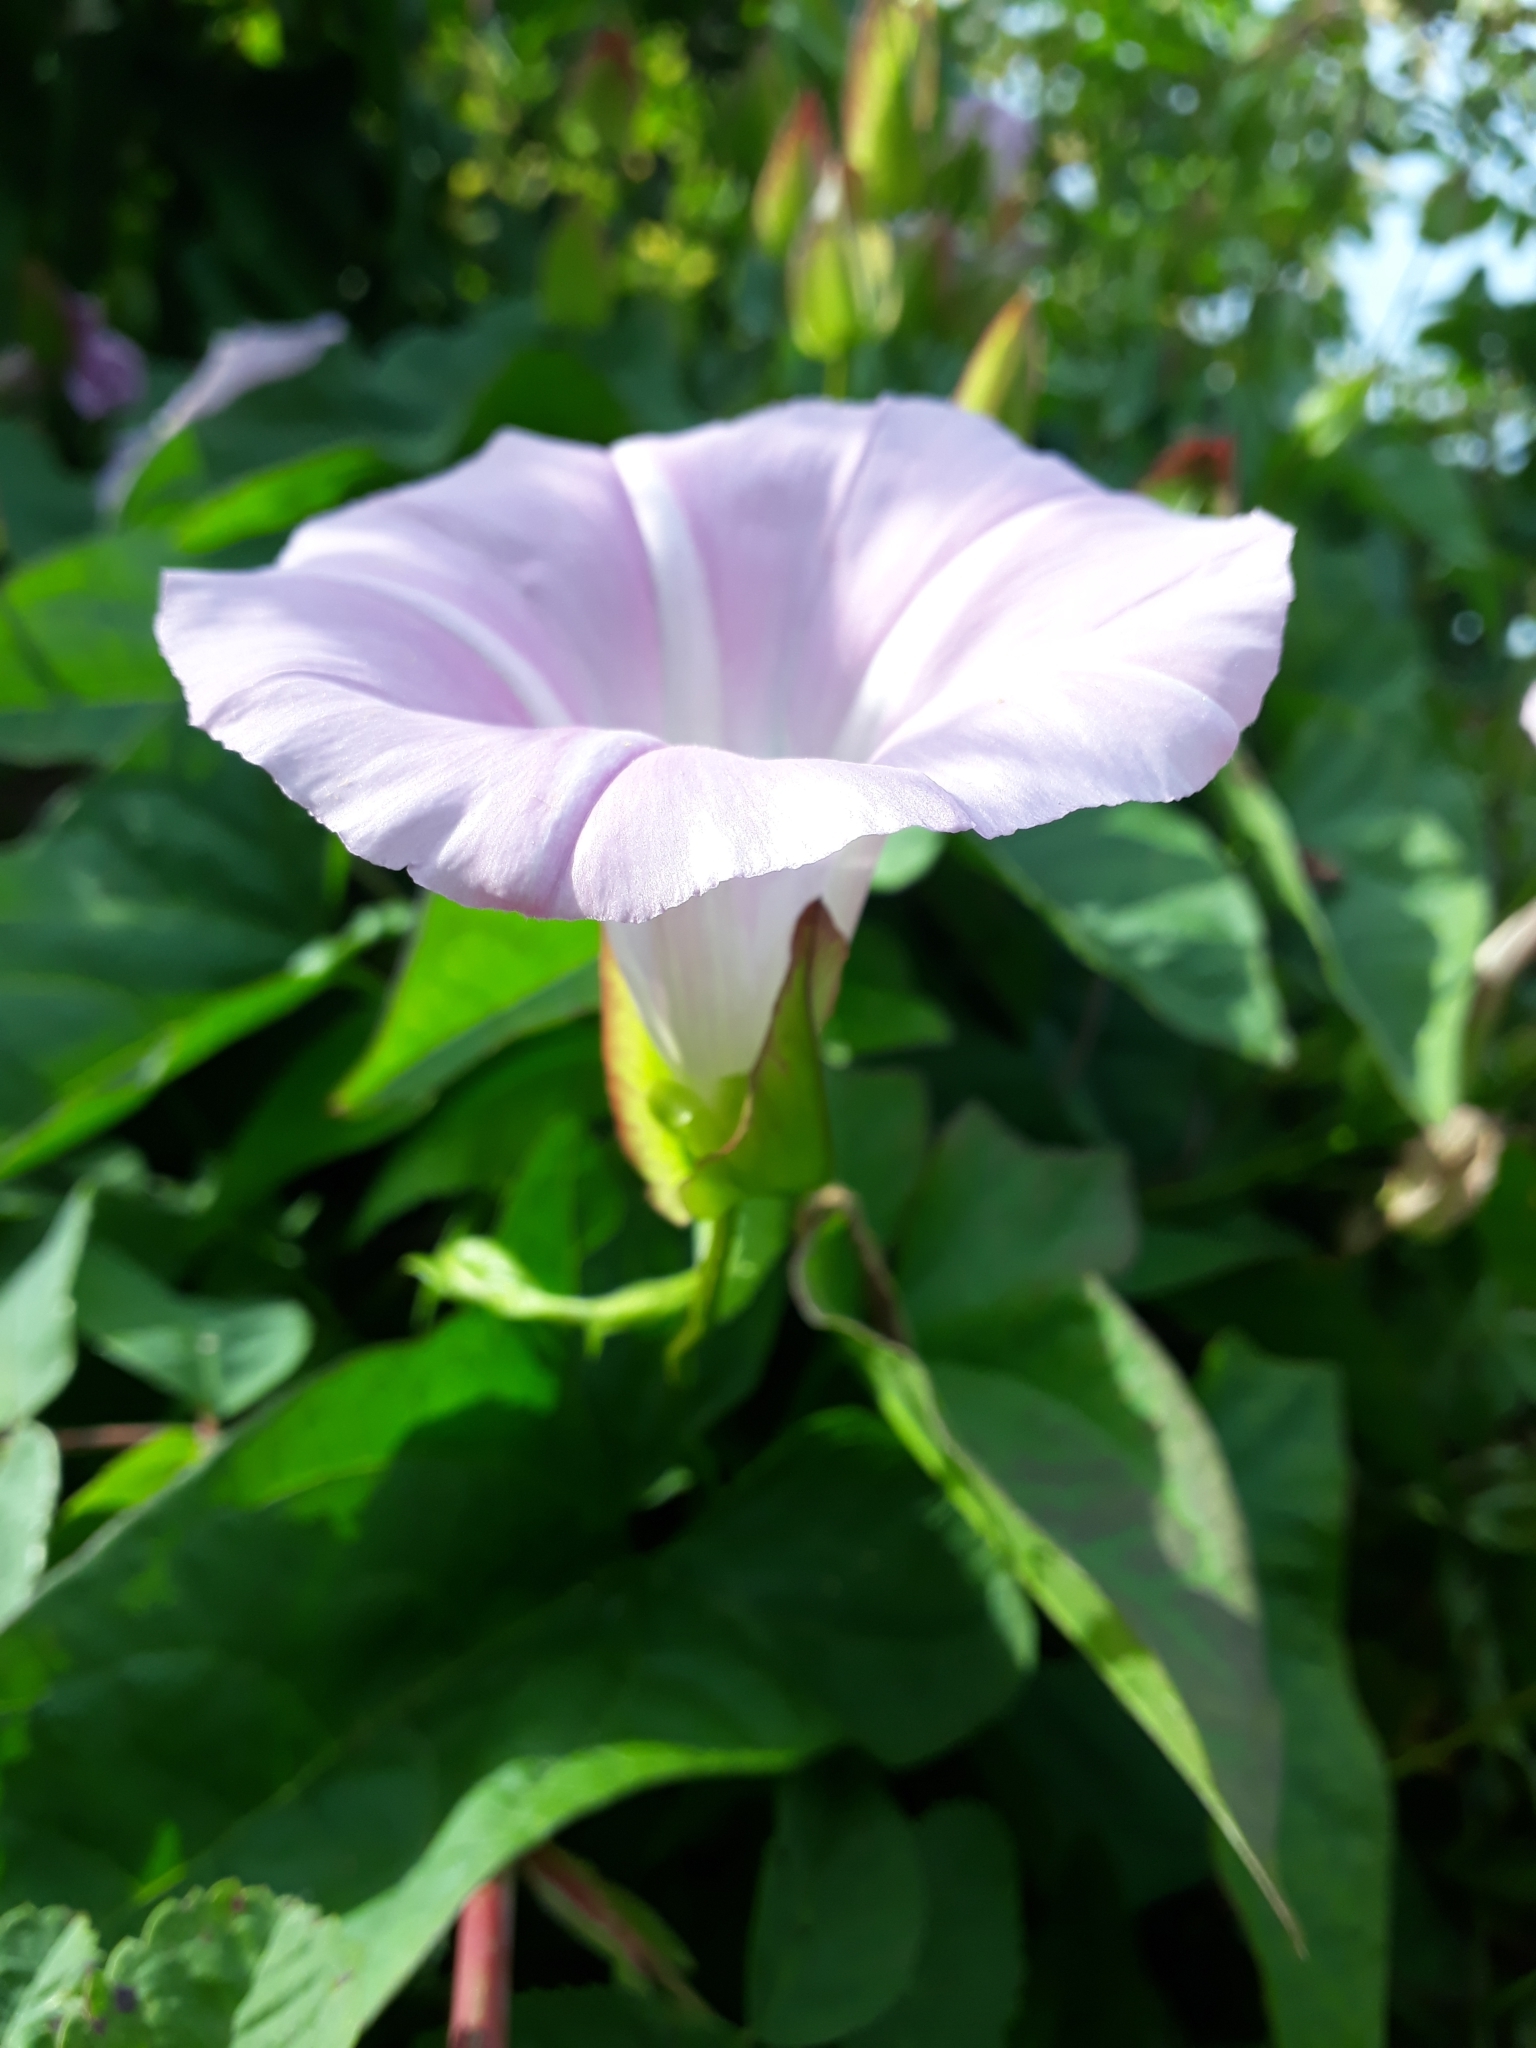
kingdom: Plantae
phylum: Tracheophyta
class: Magnoliopsida
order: Solanales
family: Convolvulaceae
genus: Calystegia
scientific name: Calystegia sepium
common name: Hedge bindweed
